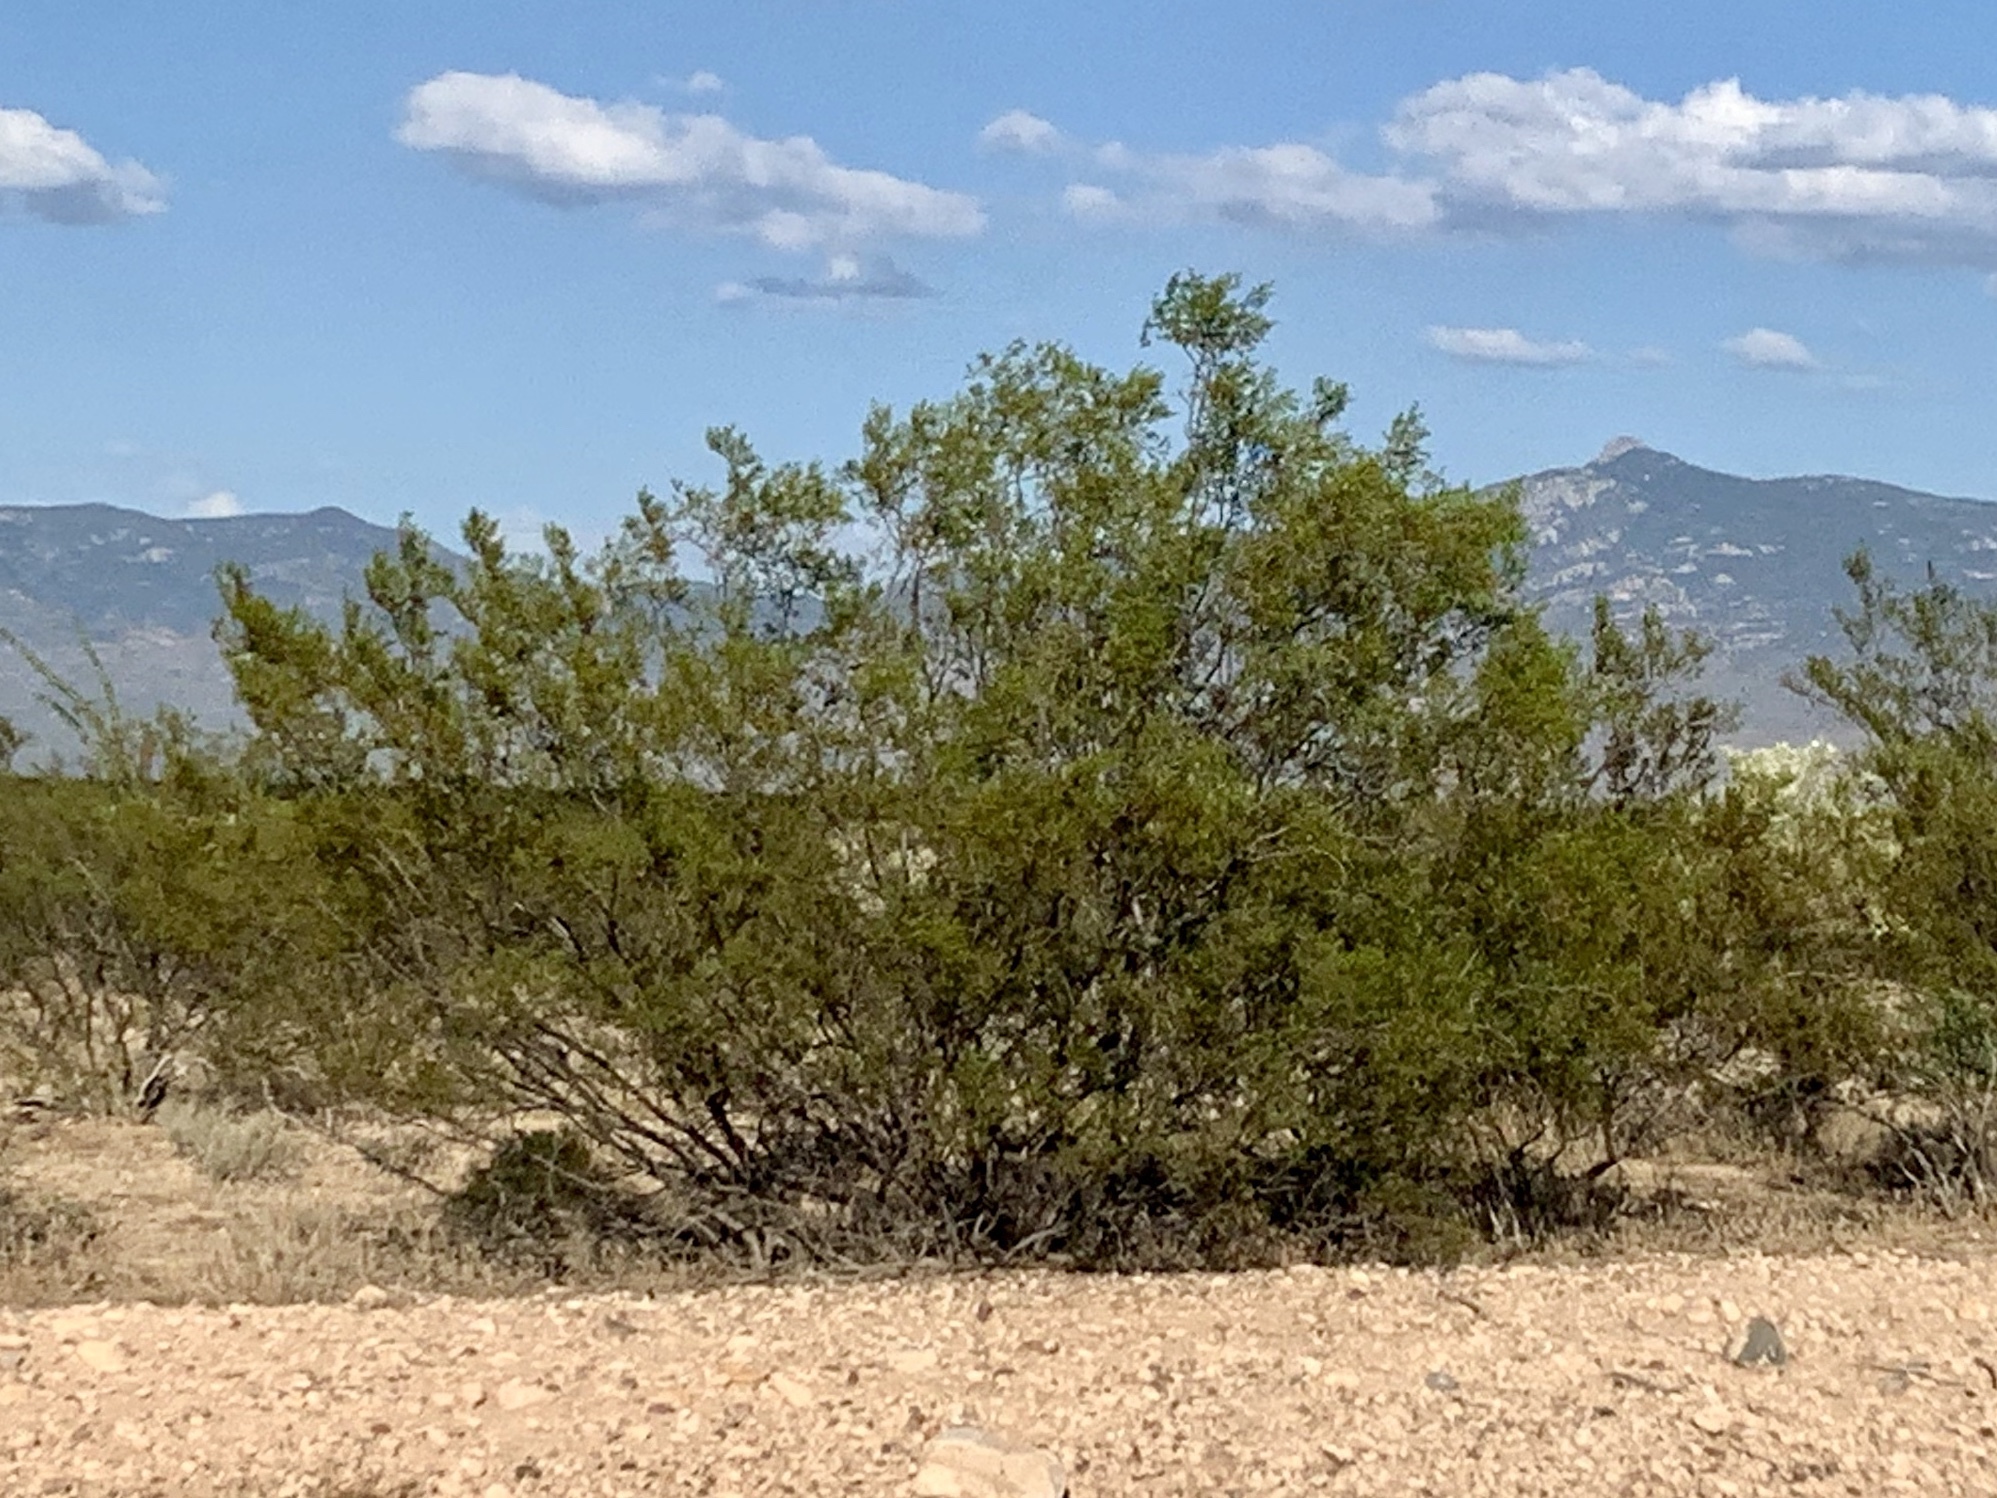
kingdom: Plantae
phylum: Tracheophyta
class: Magnoliopsida
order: Zygophyllales
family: Zygophyllaceae
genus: Larrea
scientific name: Larrea tridentata
